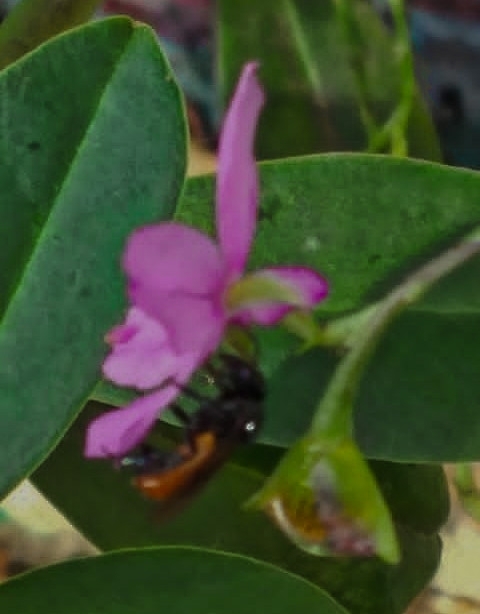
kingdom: Animalia
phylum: Arthropoda
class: Insecta
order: Hymenoptera
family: Apidae
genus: Trigona
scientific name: Trigona fulviventris
